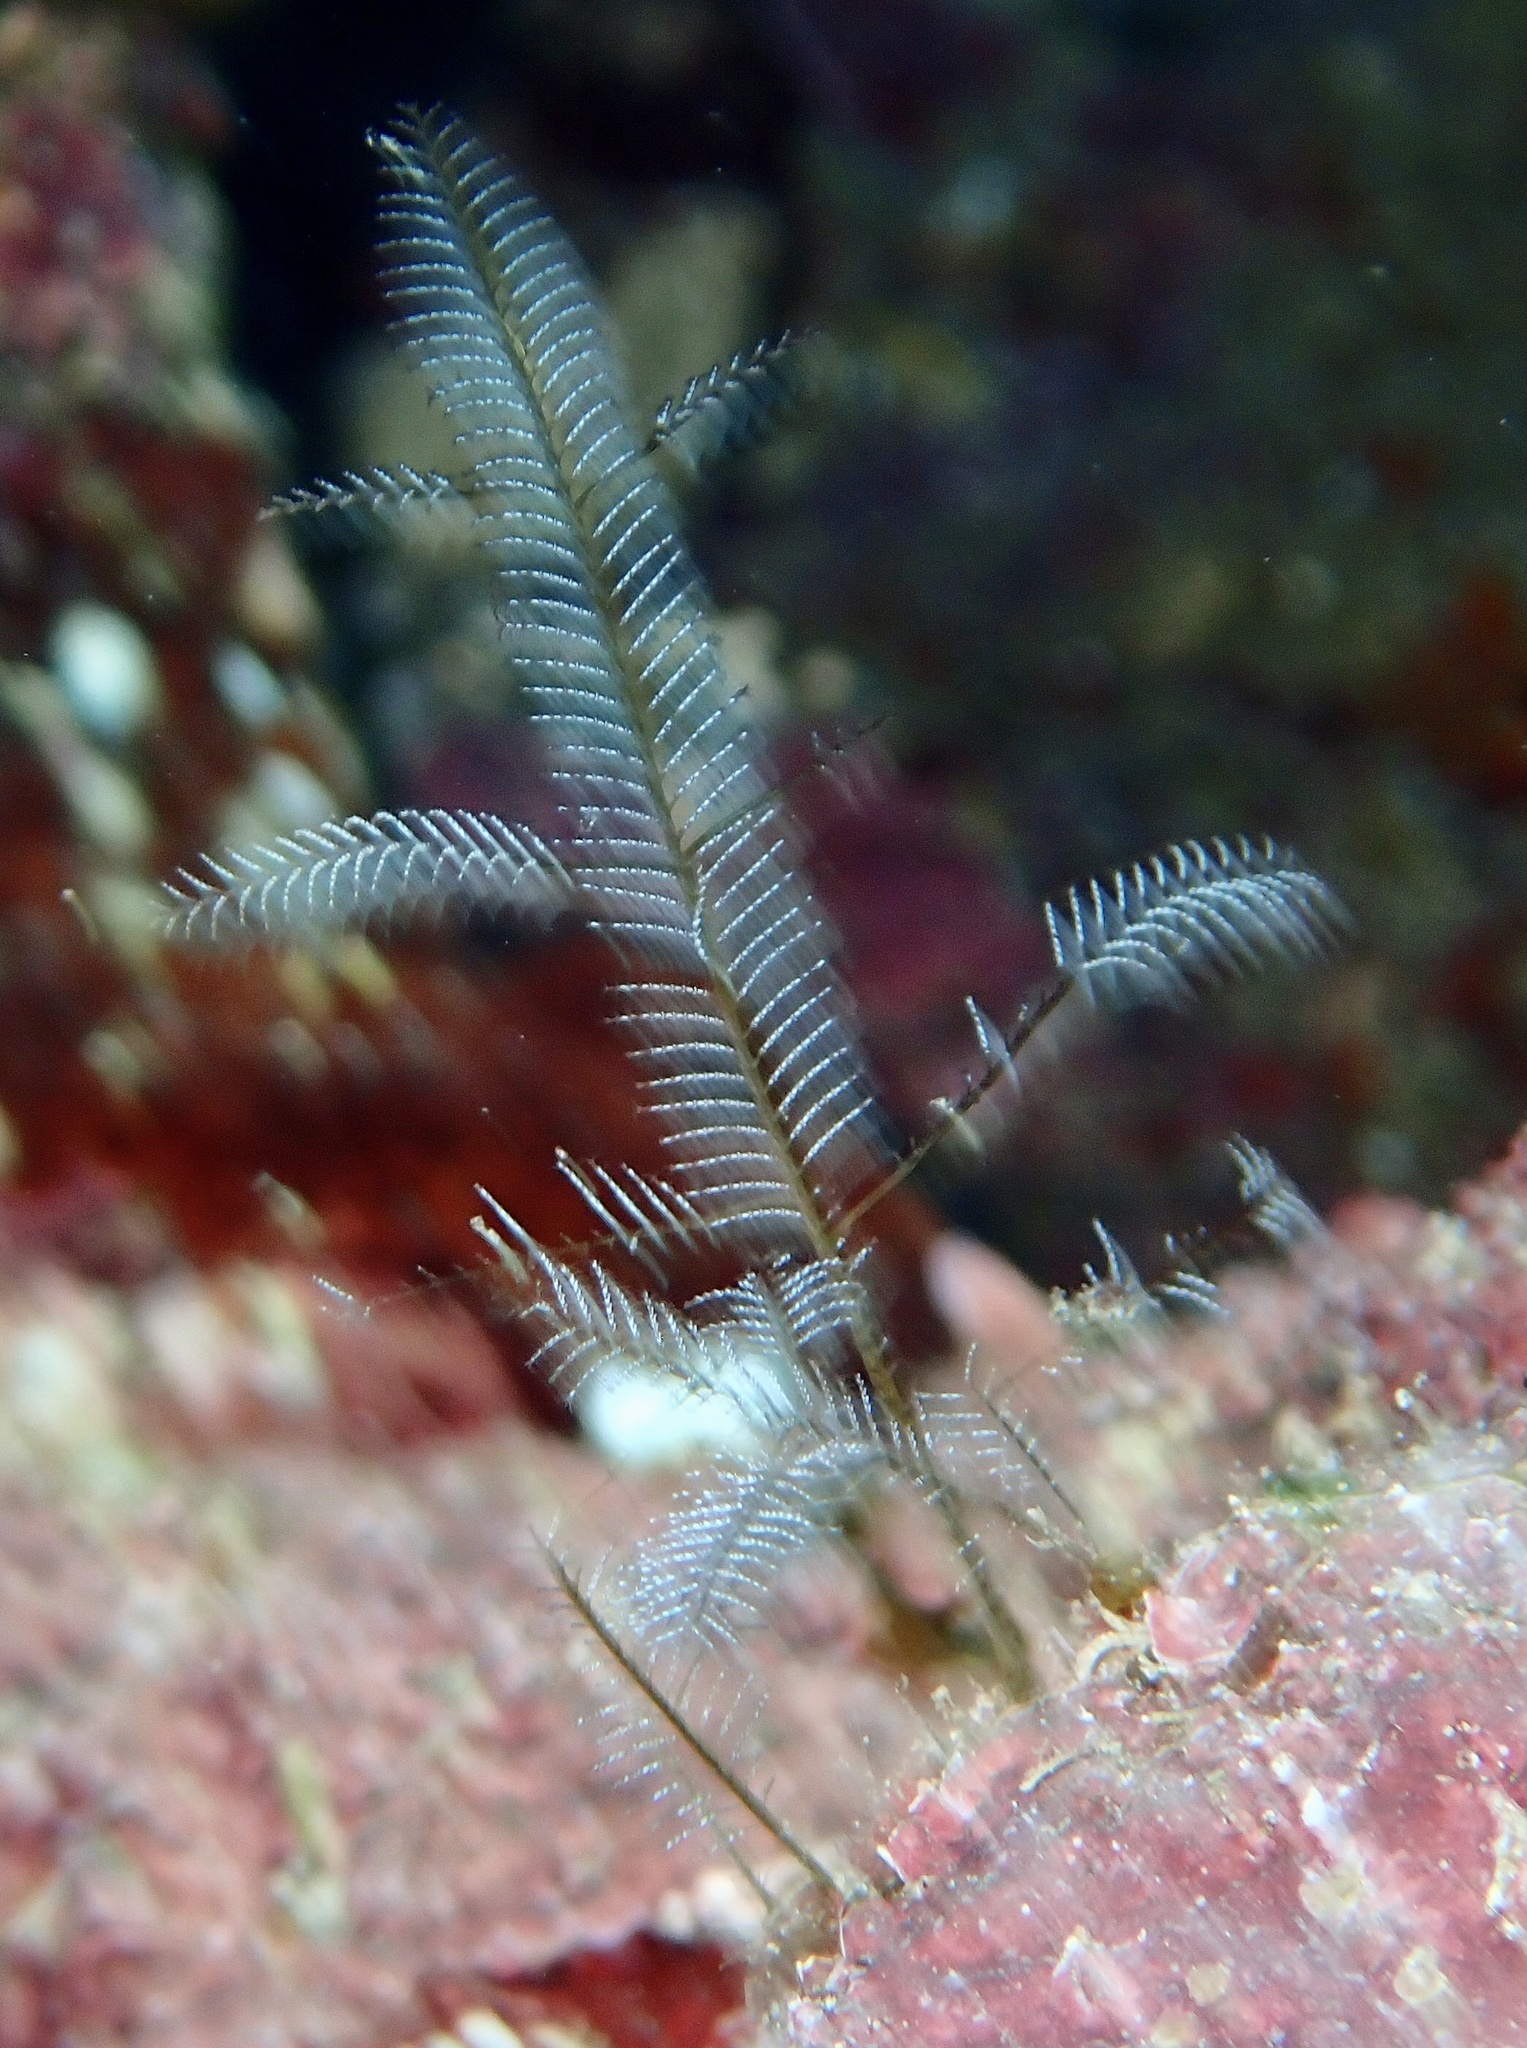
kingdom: Animalia
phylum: Cnidaria
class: Hydrozoa
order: Leptothecata
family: Aglaopheniidae
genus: Macrorhynchia
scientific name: Macrorhynchia philippina
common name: Stinging hydroid
